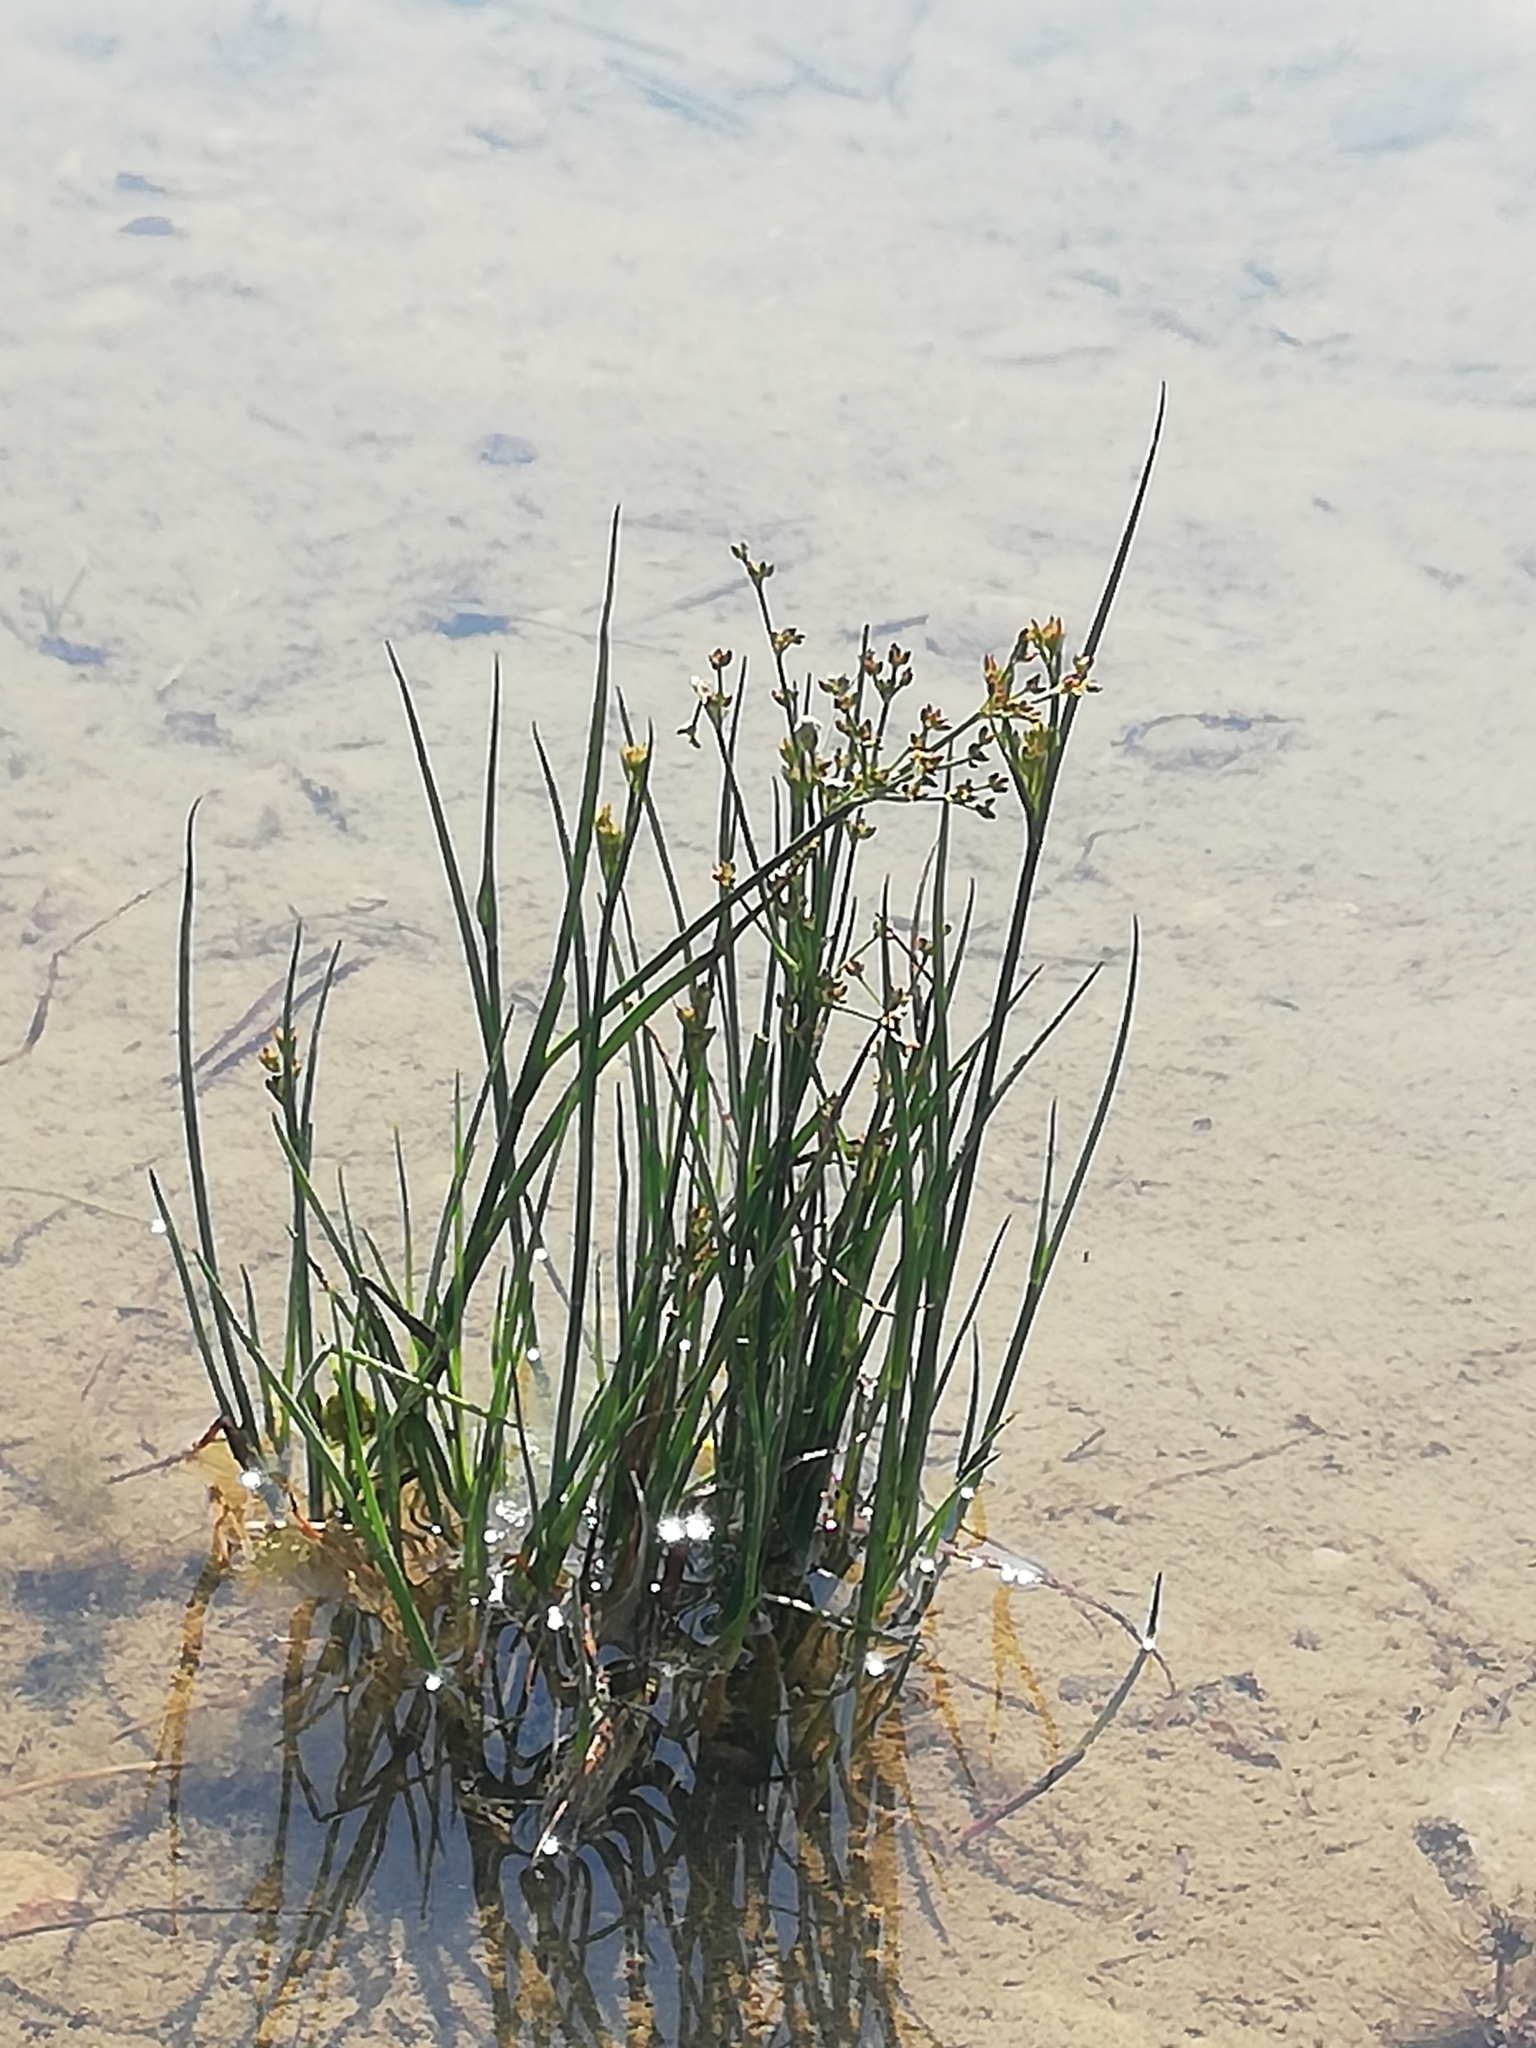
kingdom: Plantae
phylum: Tracheophyta
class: Liliopsida
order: Poales
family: Juncaceae
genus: Juncus
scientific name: Juncus articulatus
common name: Jointed rush
